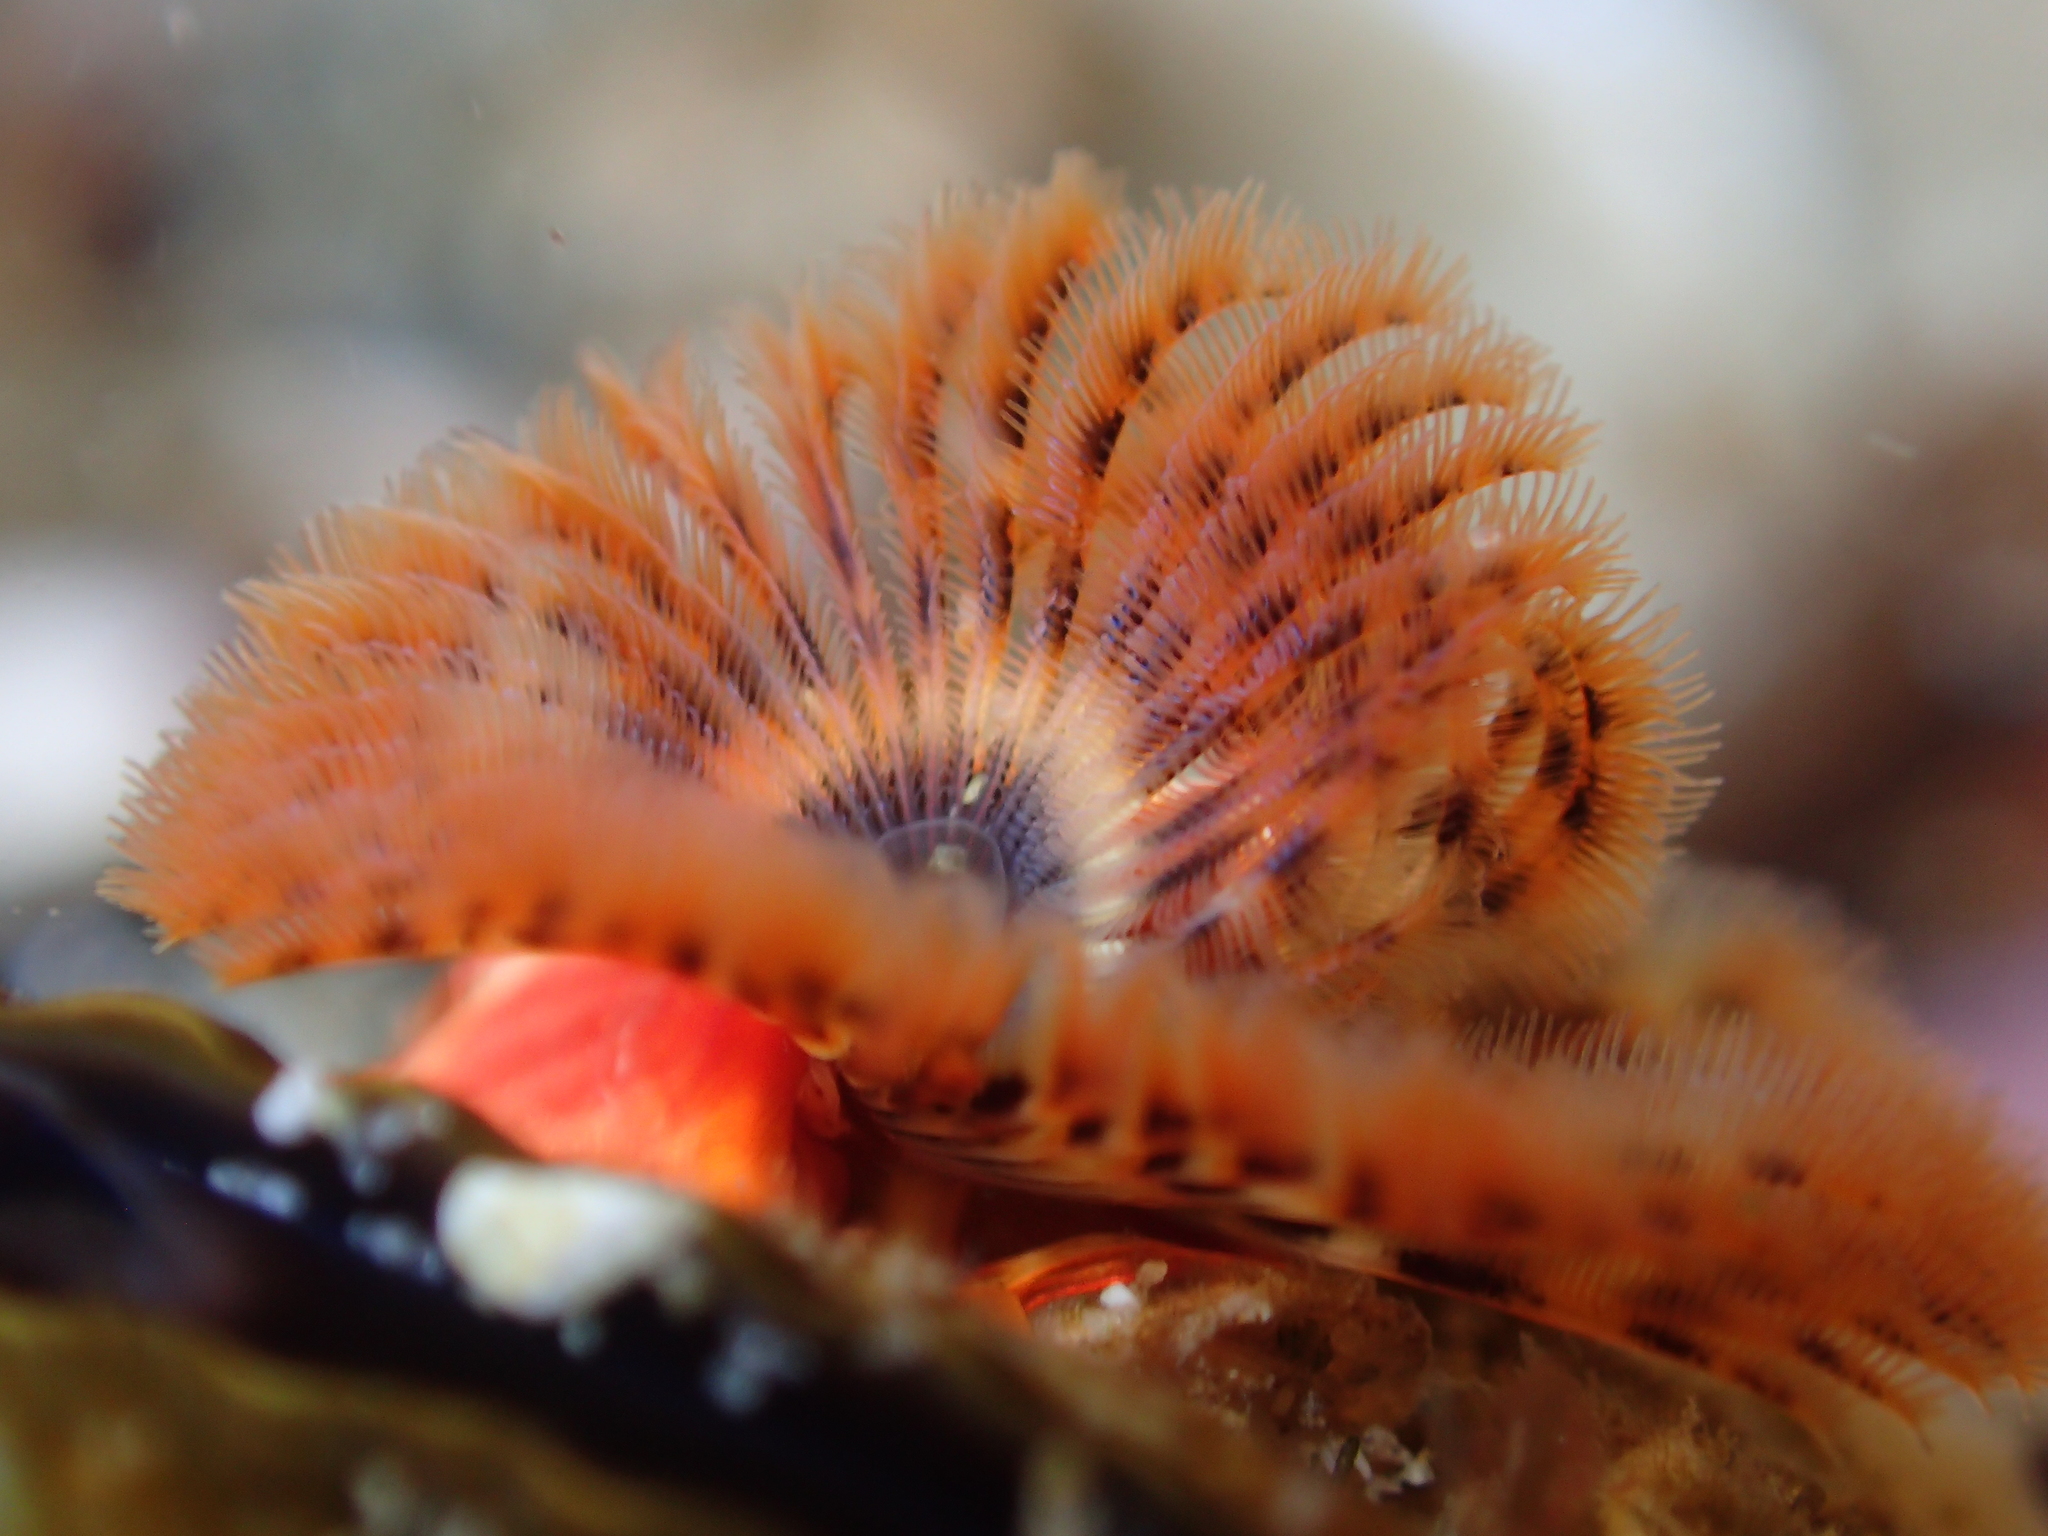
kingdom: Animalia
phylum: Annelida
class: Polychaeta
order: Sabellida
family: Serpulidae
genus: Galeolaria
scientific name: Galeolaria hystrix
